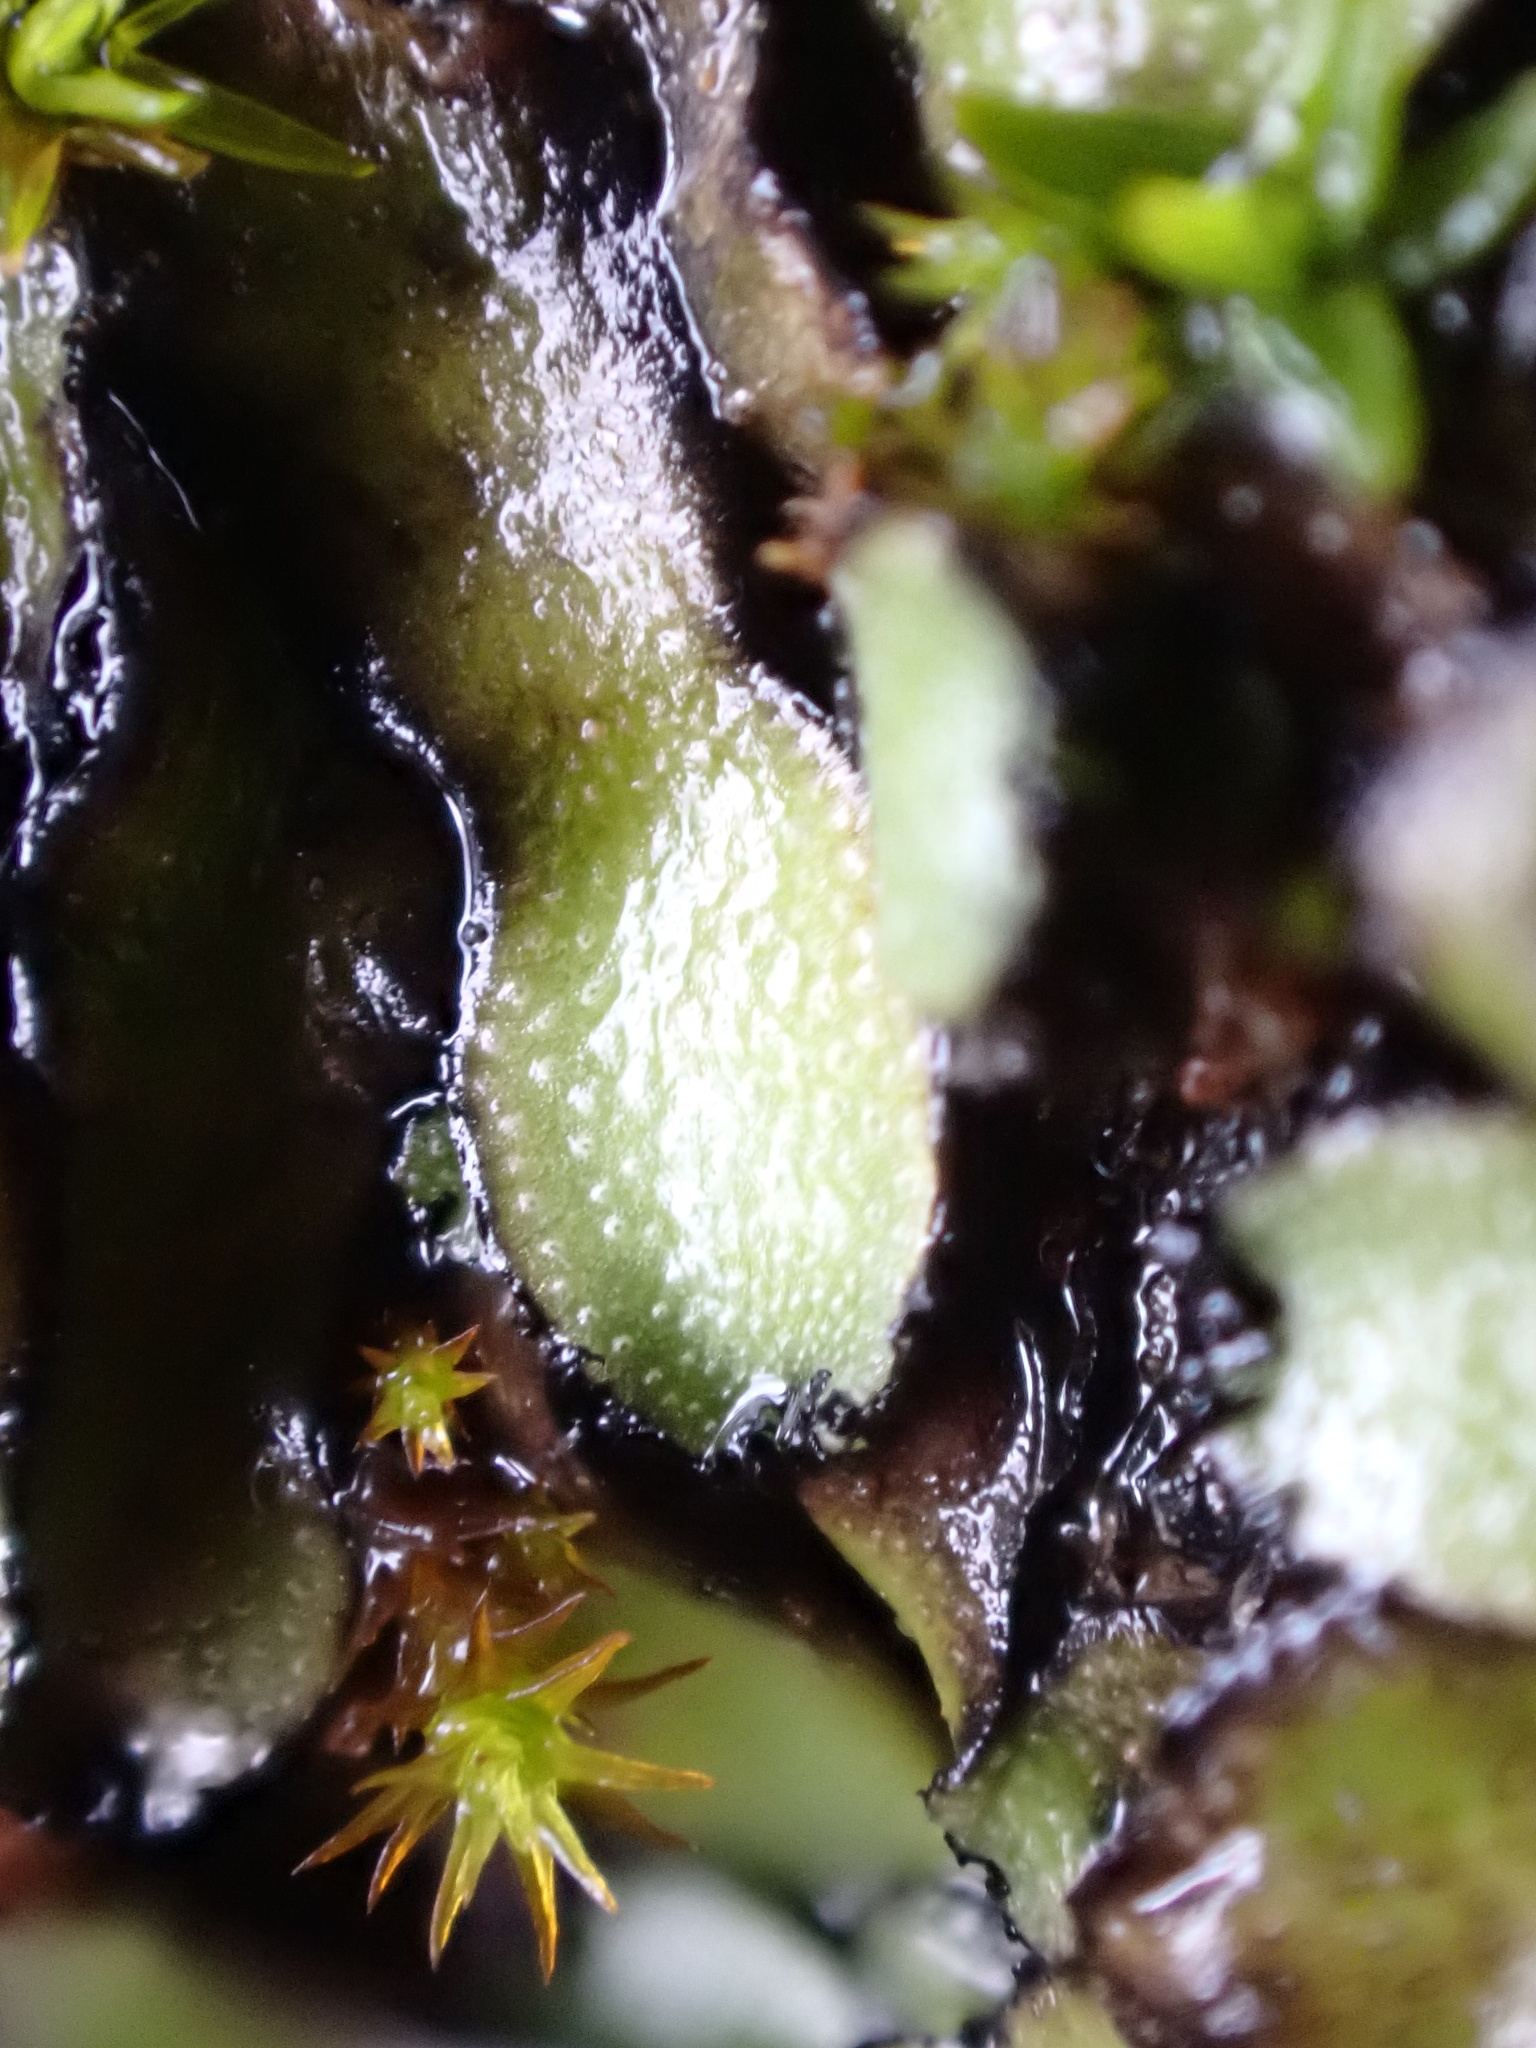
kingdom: Plantae
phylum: Marchantiophyta
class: Marchantiopsida
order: Marchantiales
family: Targioniaceae
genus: Targionia
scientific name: Targionia lorbeeriana
